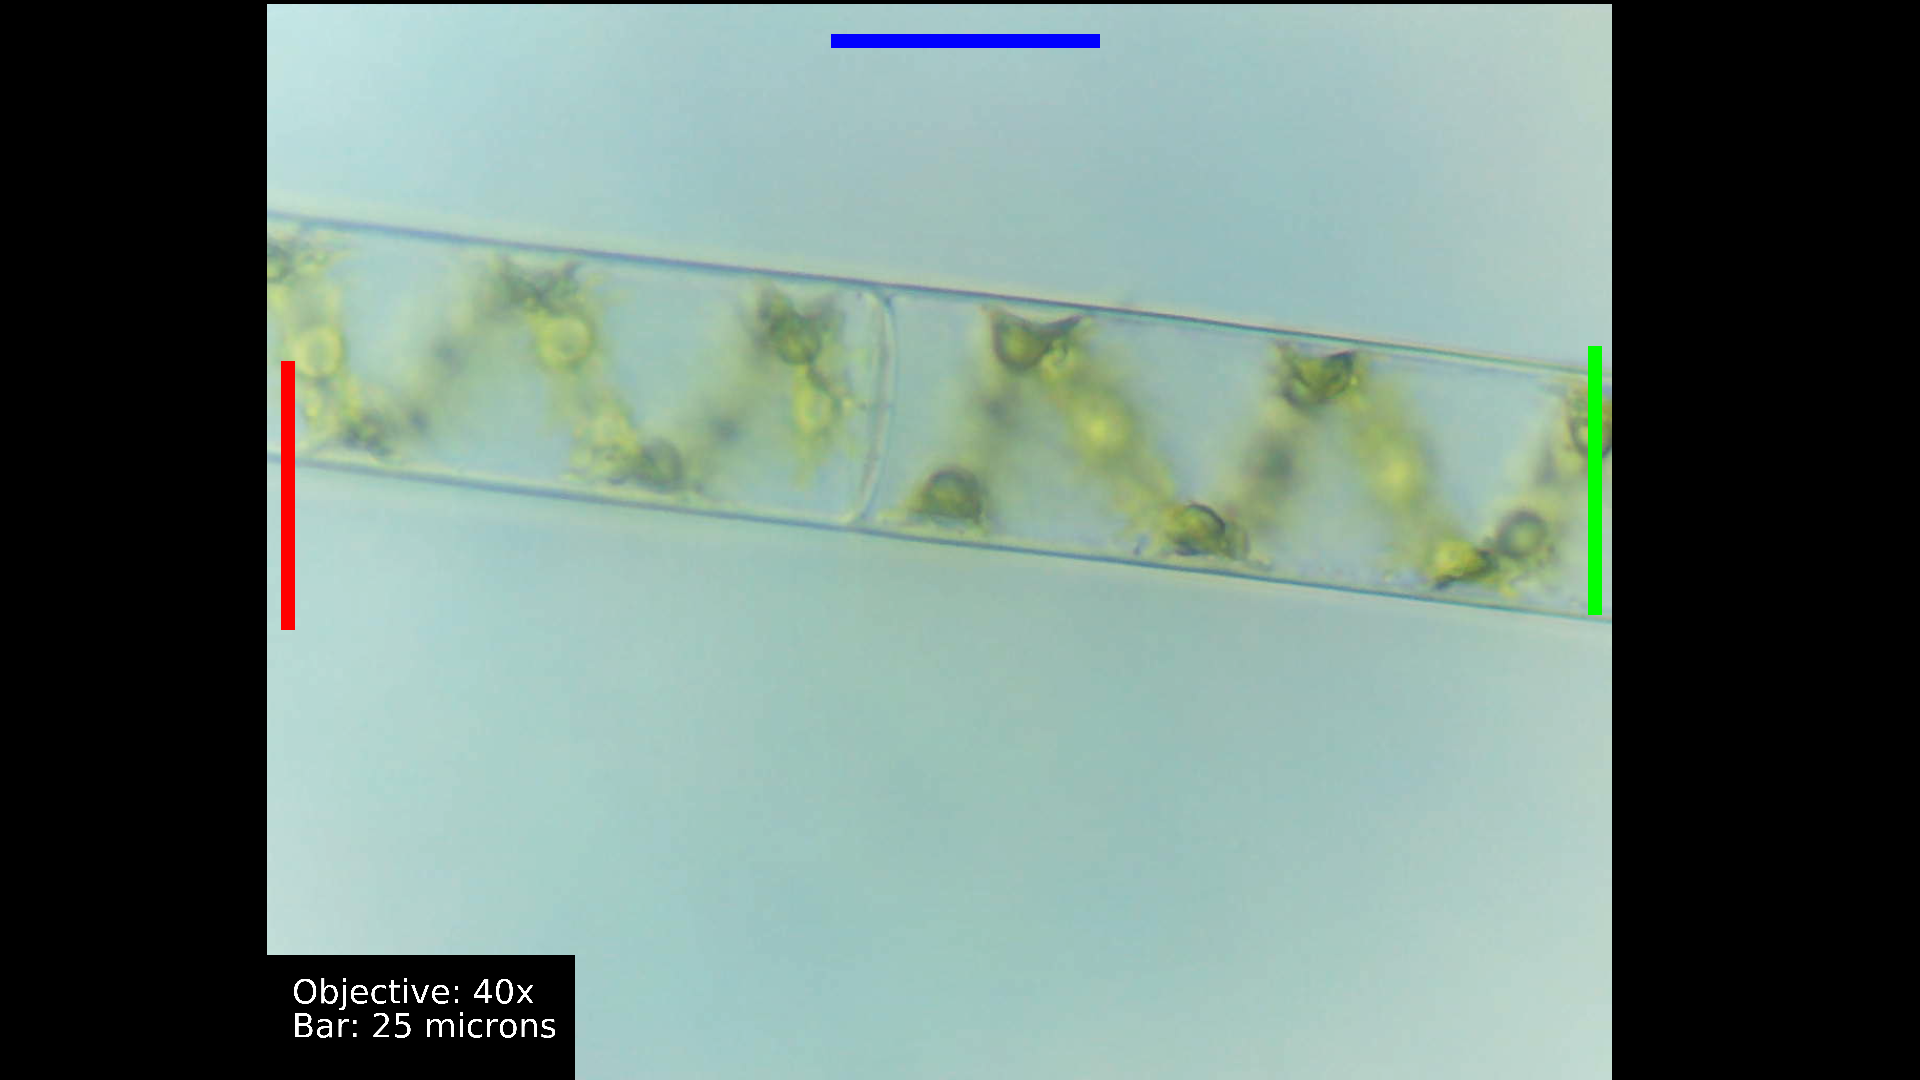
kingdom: Plantae
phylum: Charophyta
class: Zygnematophyceae
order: Zygnematales
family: Zygnemataceae
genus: Spirogyra
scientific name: Spirogyra
